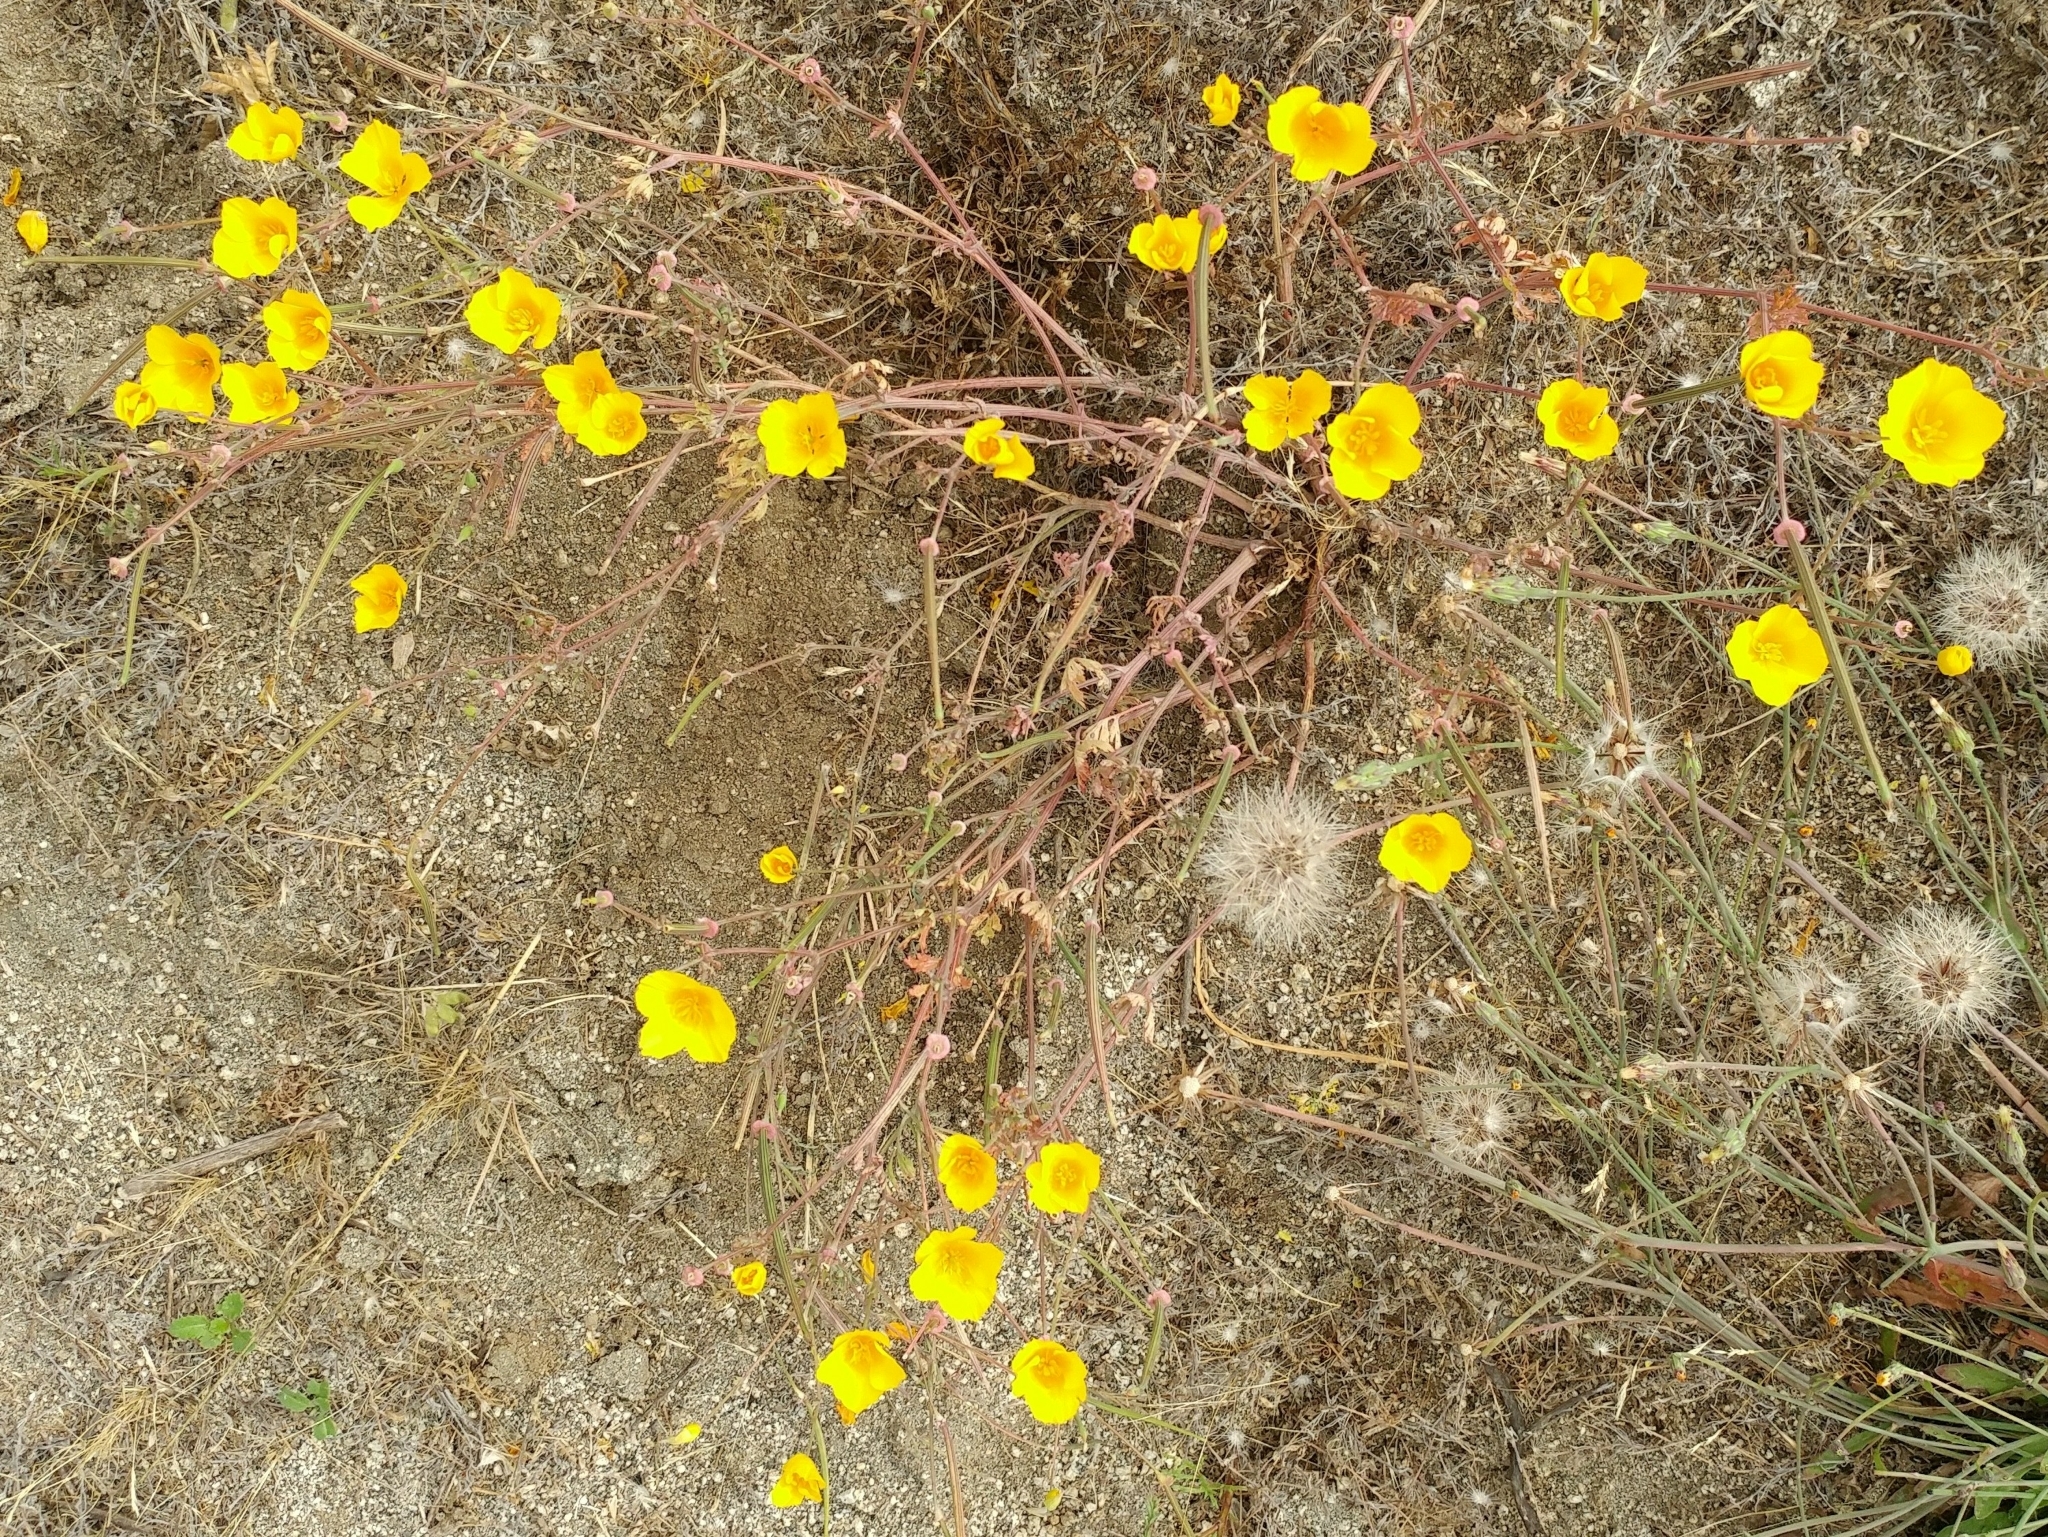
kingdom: Plantae
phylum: Tracheophyta
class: Magnoliopsida
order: Ranunculales
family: Papaveraceae
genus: Eschscholzia
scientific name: Eschscholzia californica
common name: California poppy
